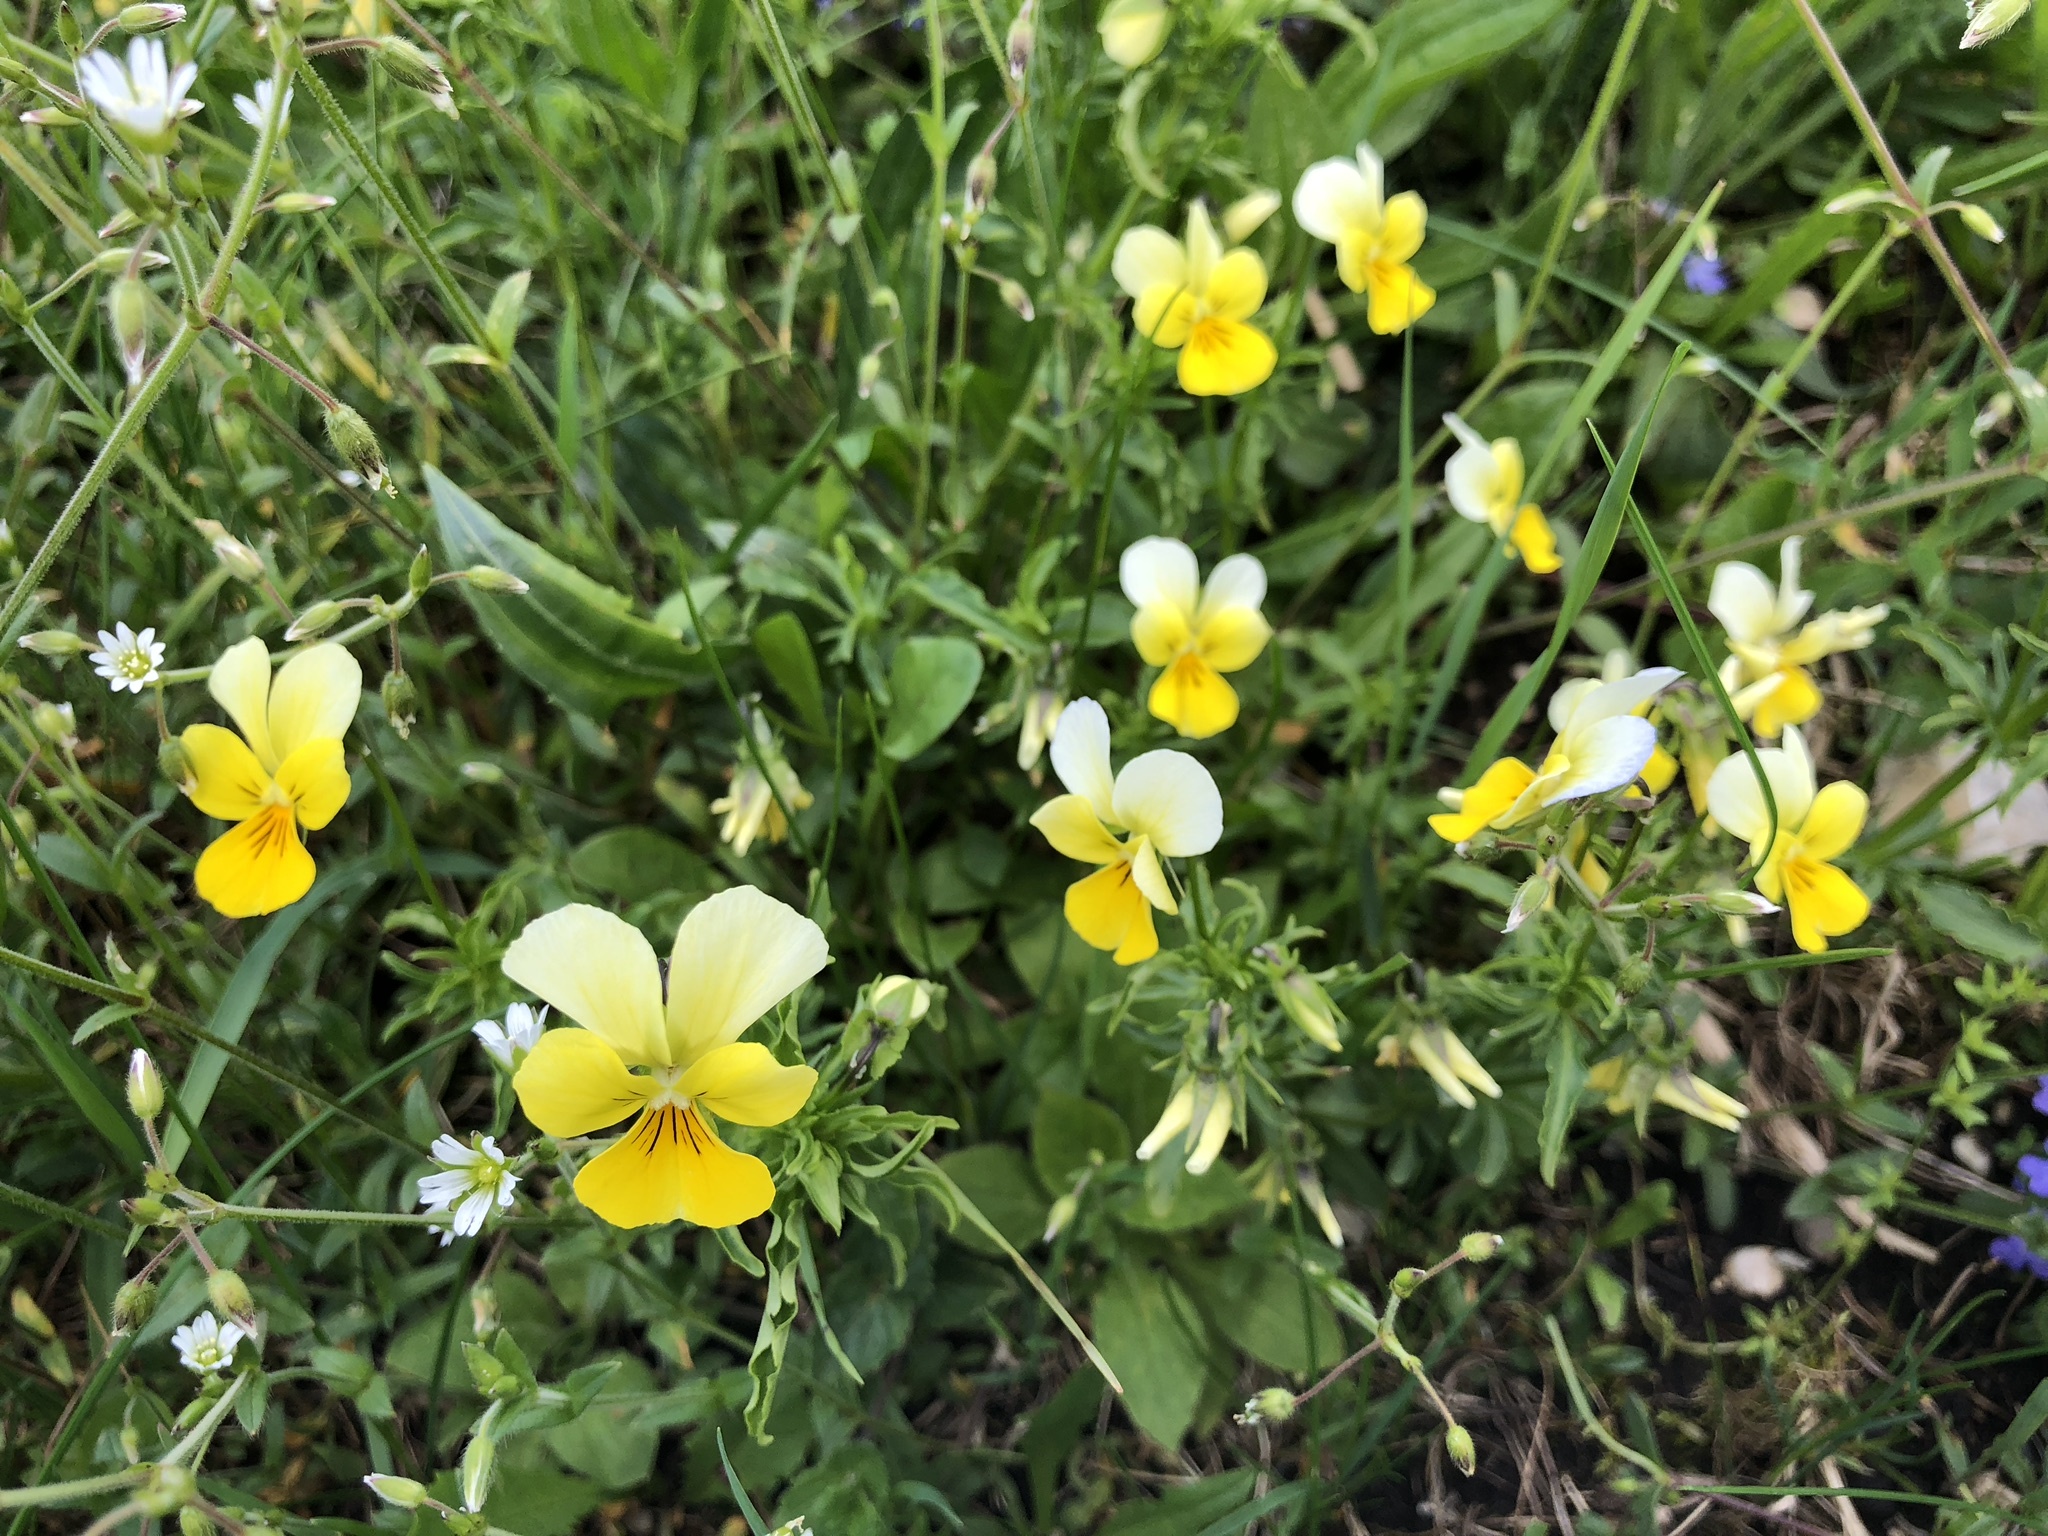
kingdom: Plantae
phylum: Tracheophyta
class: Magnoliopsida
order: Malpighiales
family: Violaceae
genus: Viola
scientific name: Viola arvensis
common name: Field pansy
